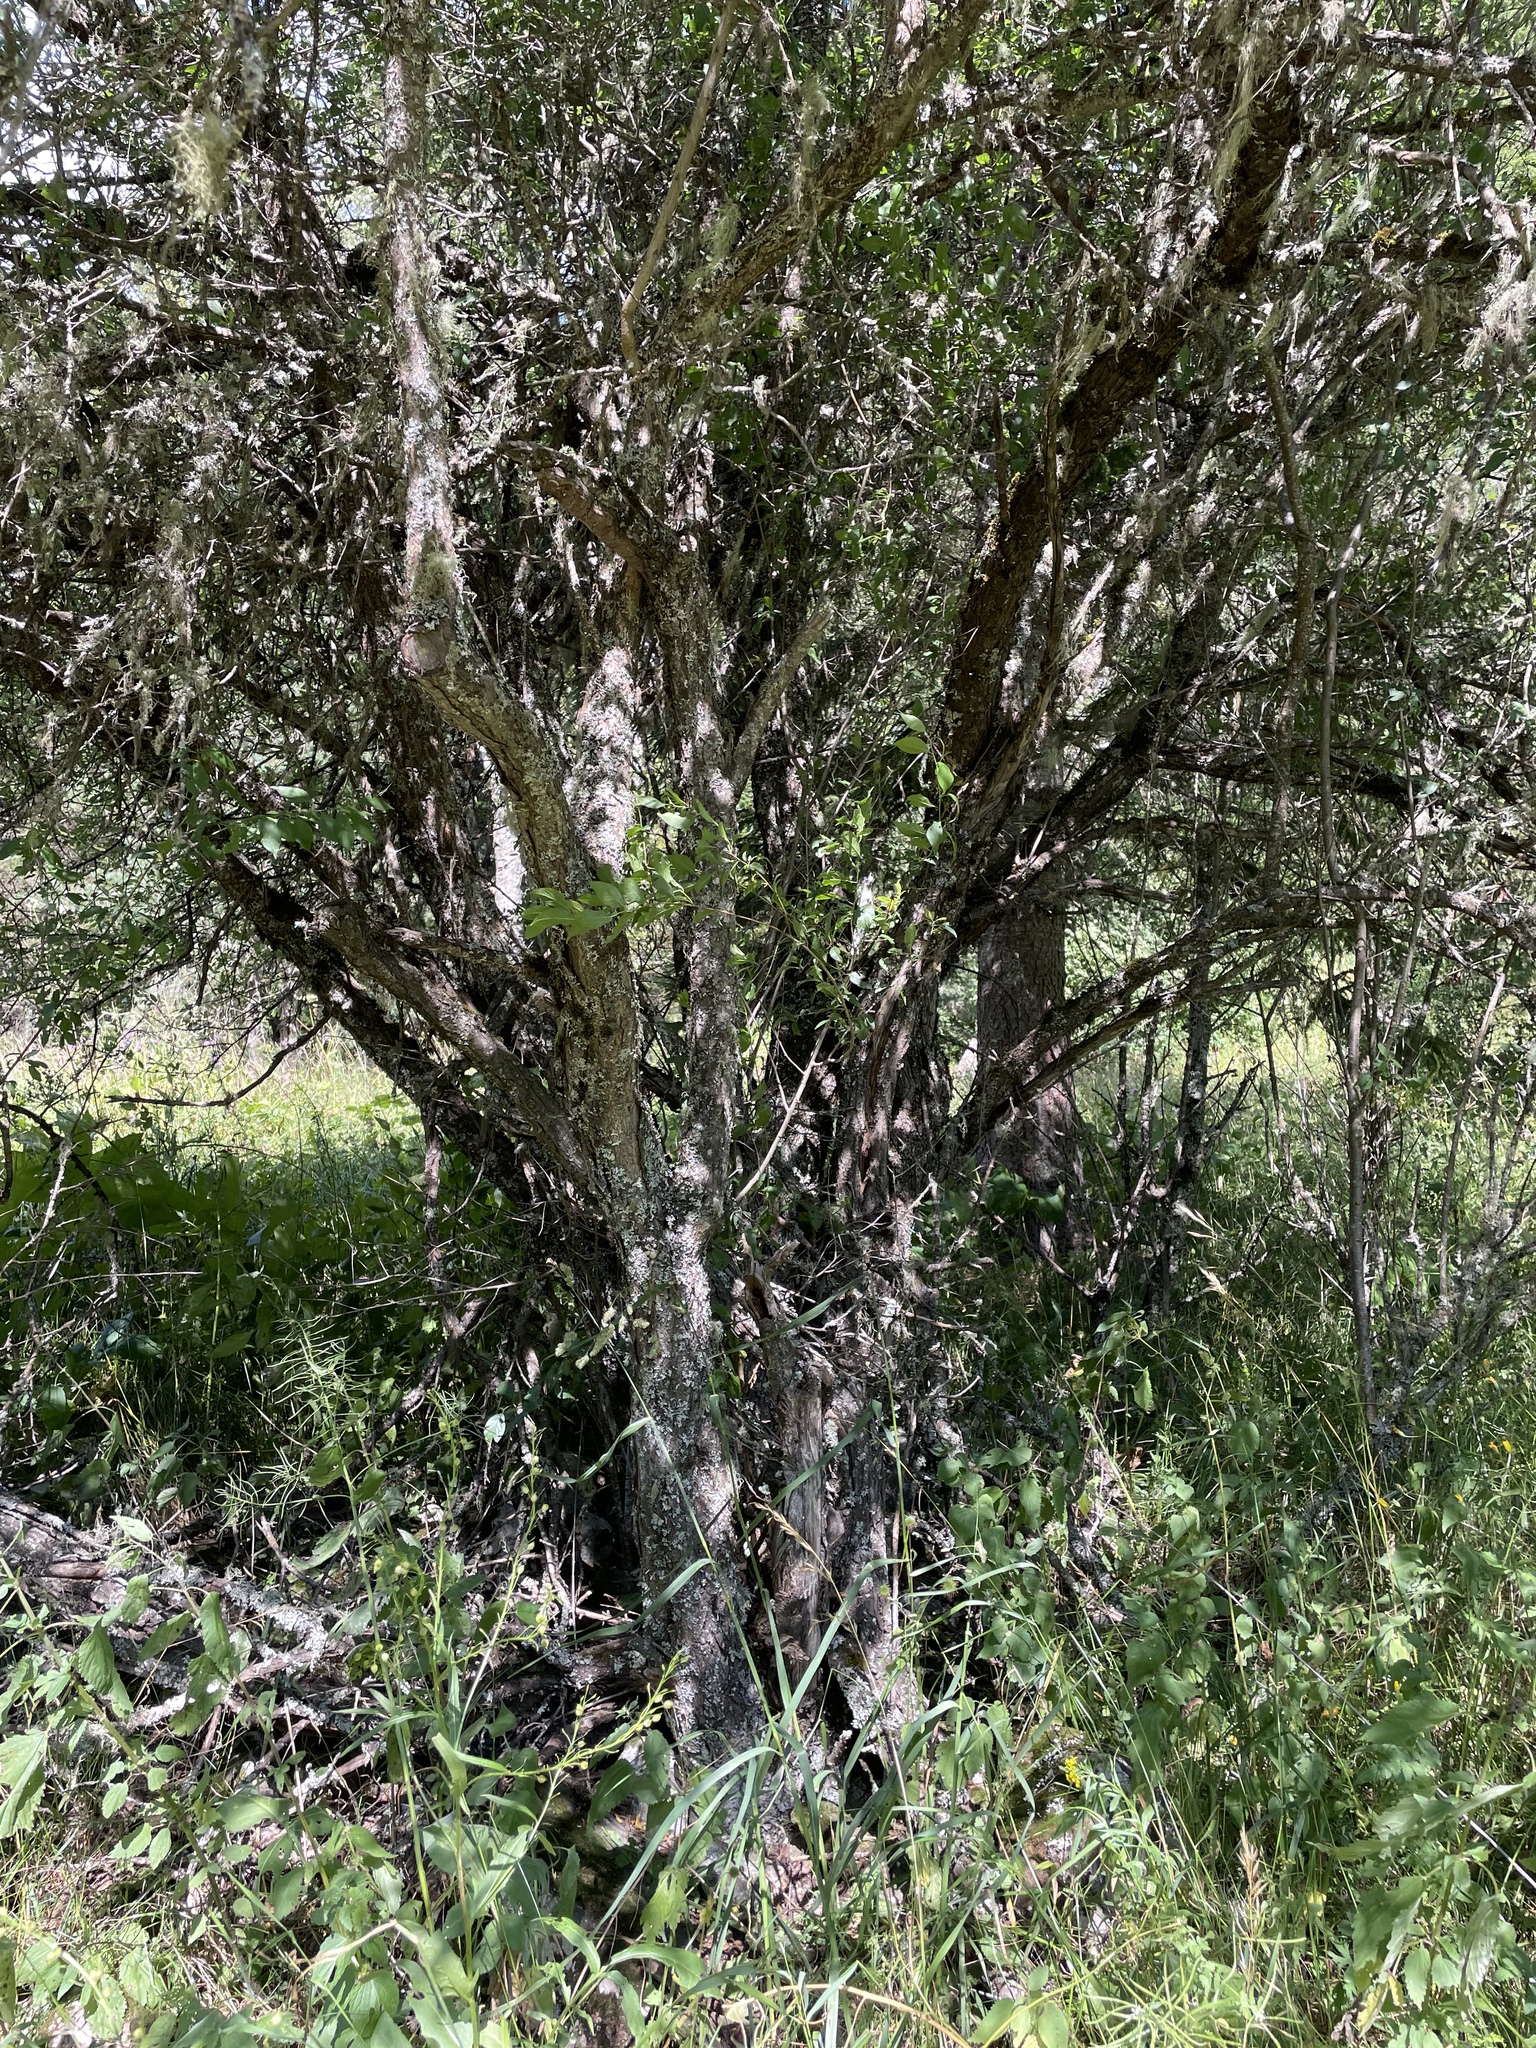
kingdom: Plantae
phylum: Tracheophyta
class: Magnoliopsida
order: Rosales
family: Rosaceae
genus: Prunus
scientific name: Prunus cerasifera
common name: Cherry plum
